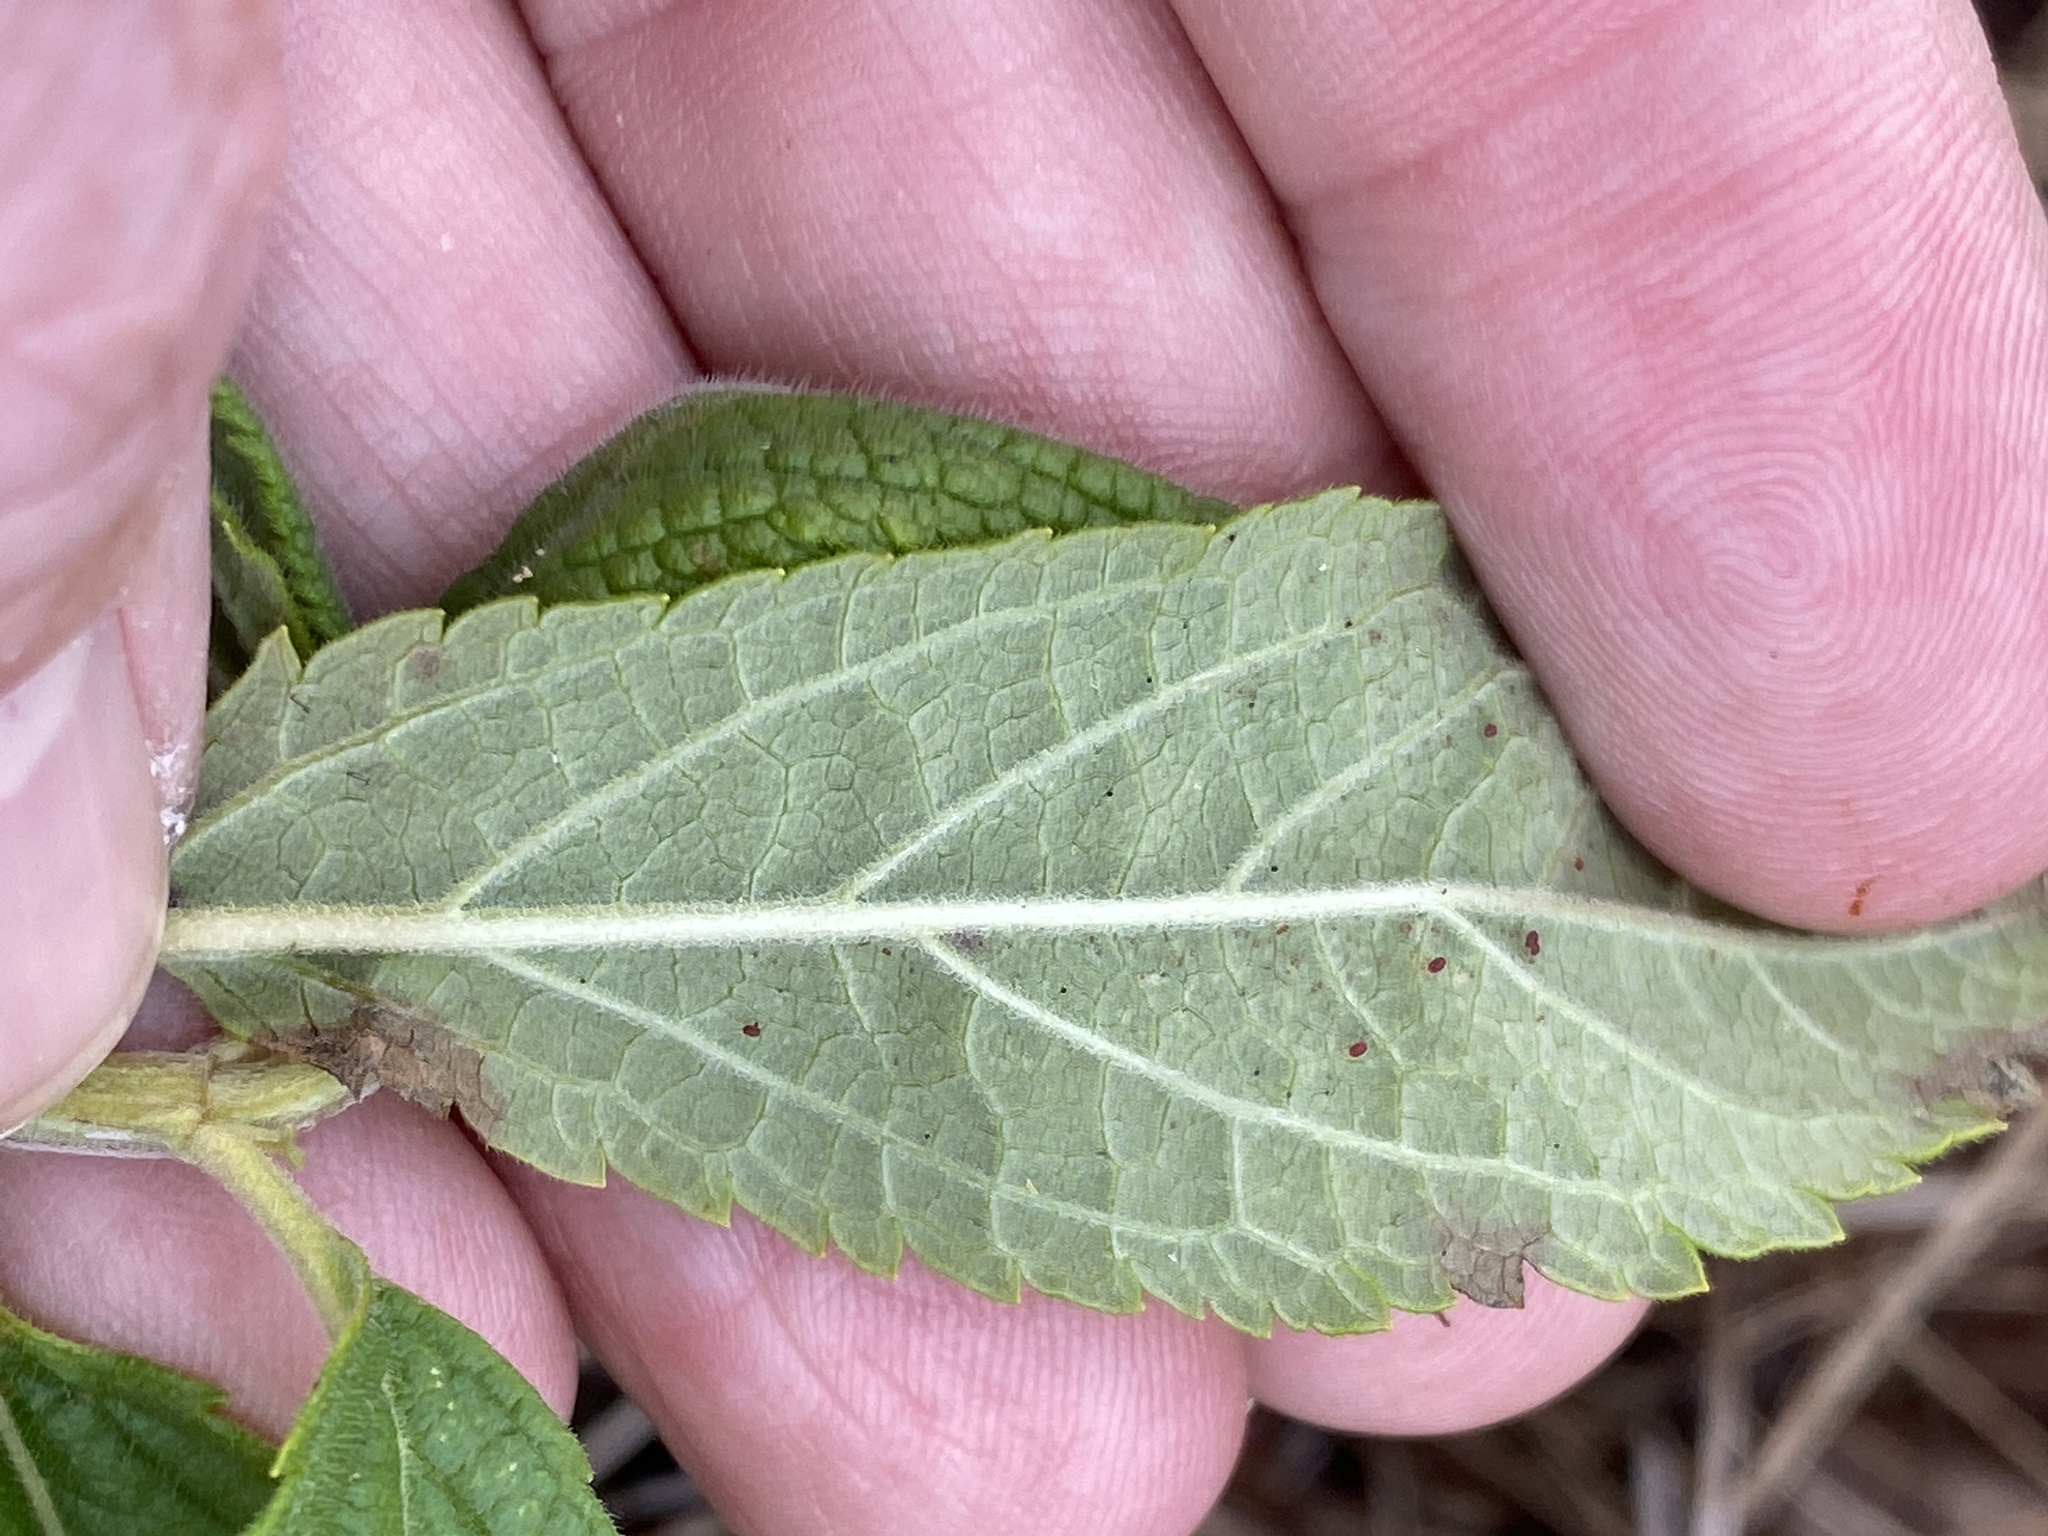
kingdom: Plantae
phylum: Tracheophyta
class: Magnoliopsida
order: Lamiales
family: Lamiaceae
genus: Teucrium
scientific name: Teucrium canadense
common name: American germander
